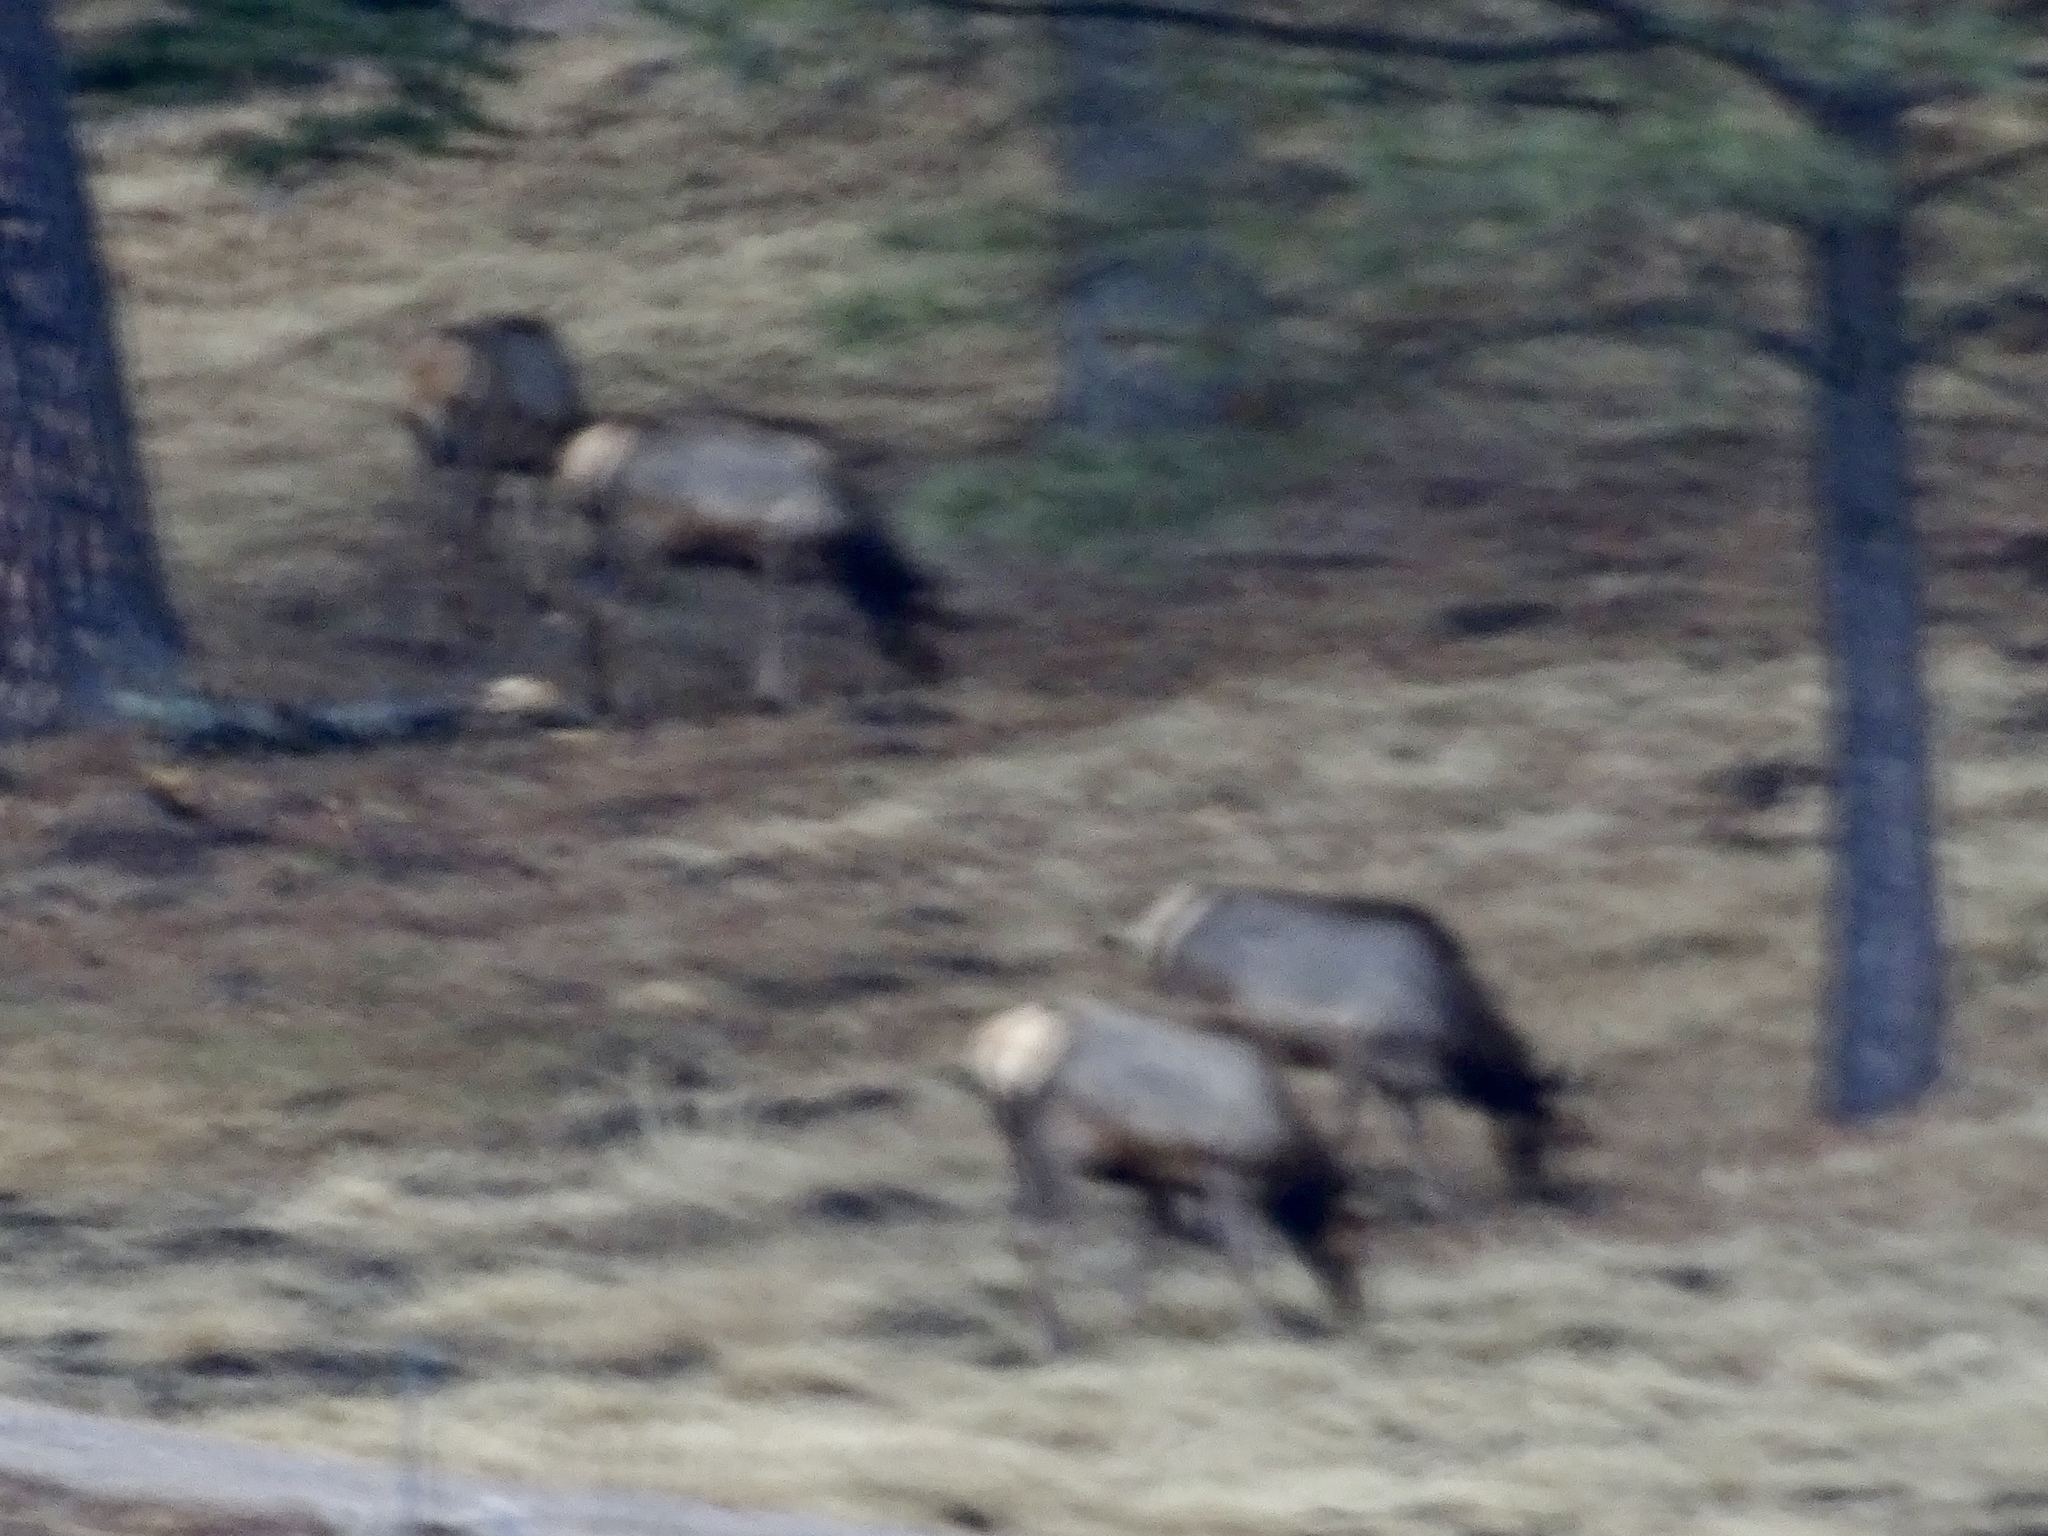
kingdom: Animalia
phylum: Chordata
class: Mammalia
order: Artiodactyla
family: Cervidae
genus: Cervus
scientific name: Cervus elaphus
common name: Red deer
